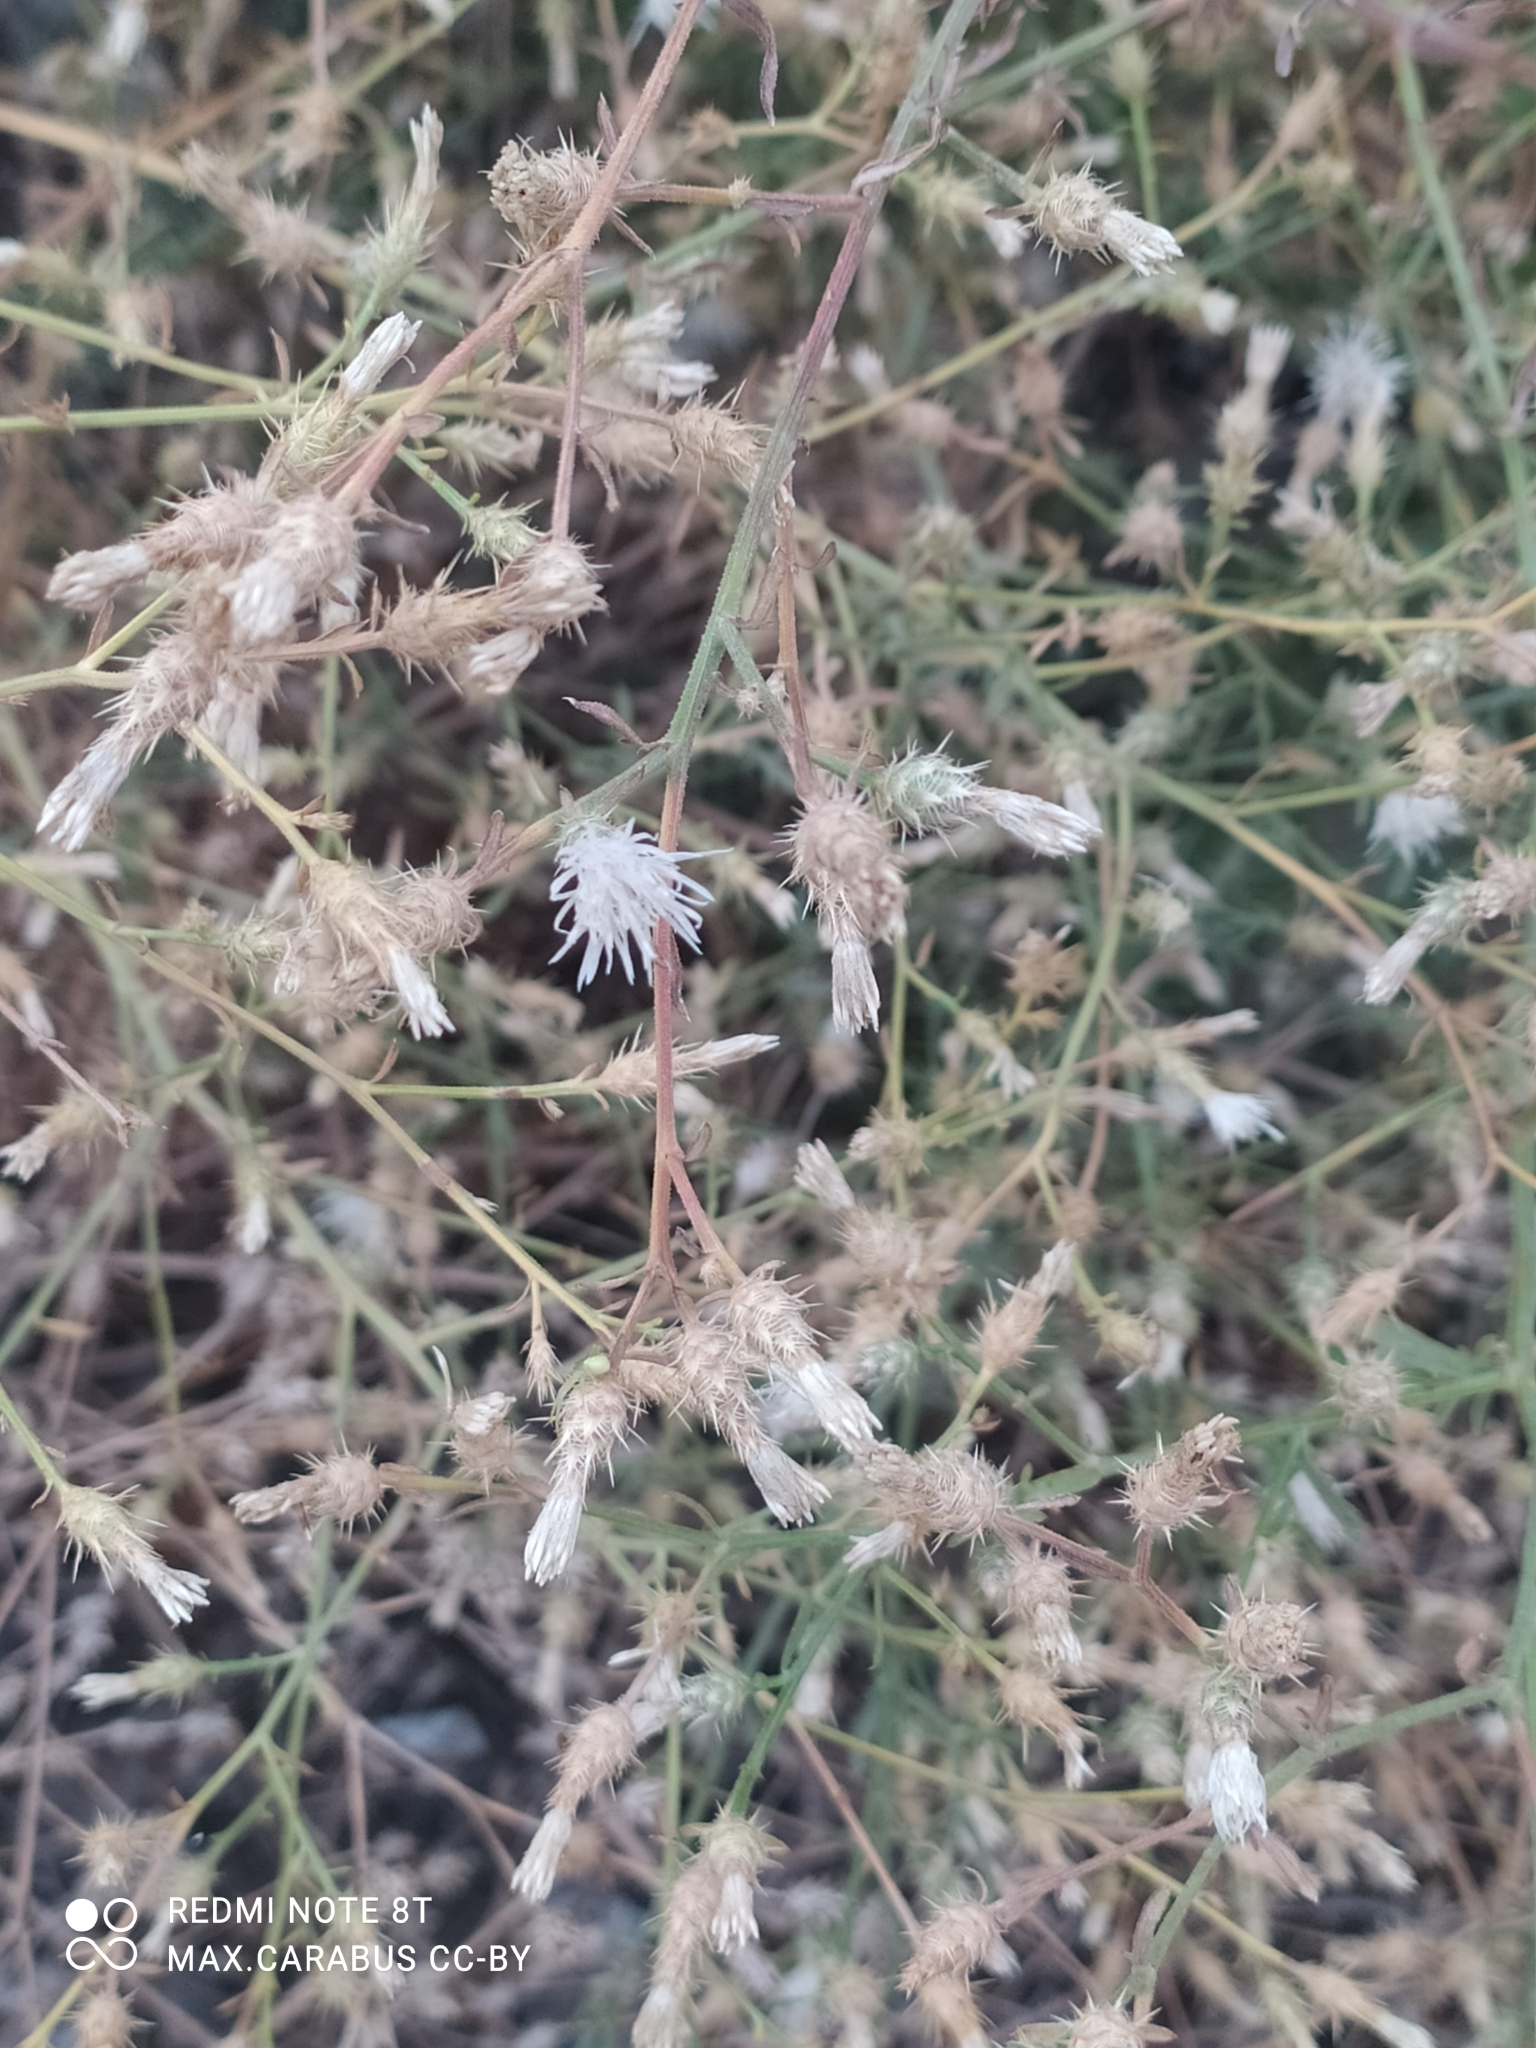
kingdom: Plantae
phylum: Tracheophyta
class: Magnoliopsida
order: Asterales
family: Asteraceae
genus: Centaurea
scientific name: Centaurea diffusa
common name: Diffuse knapweed
